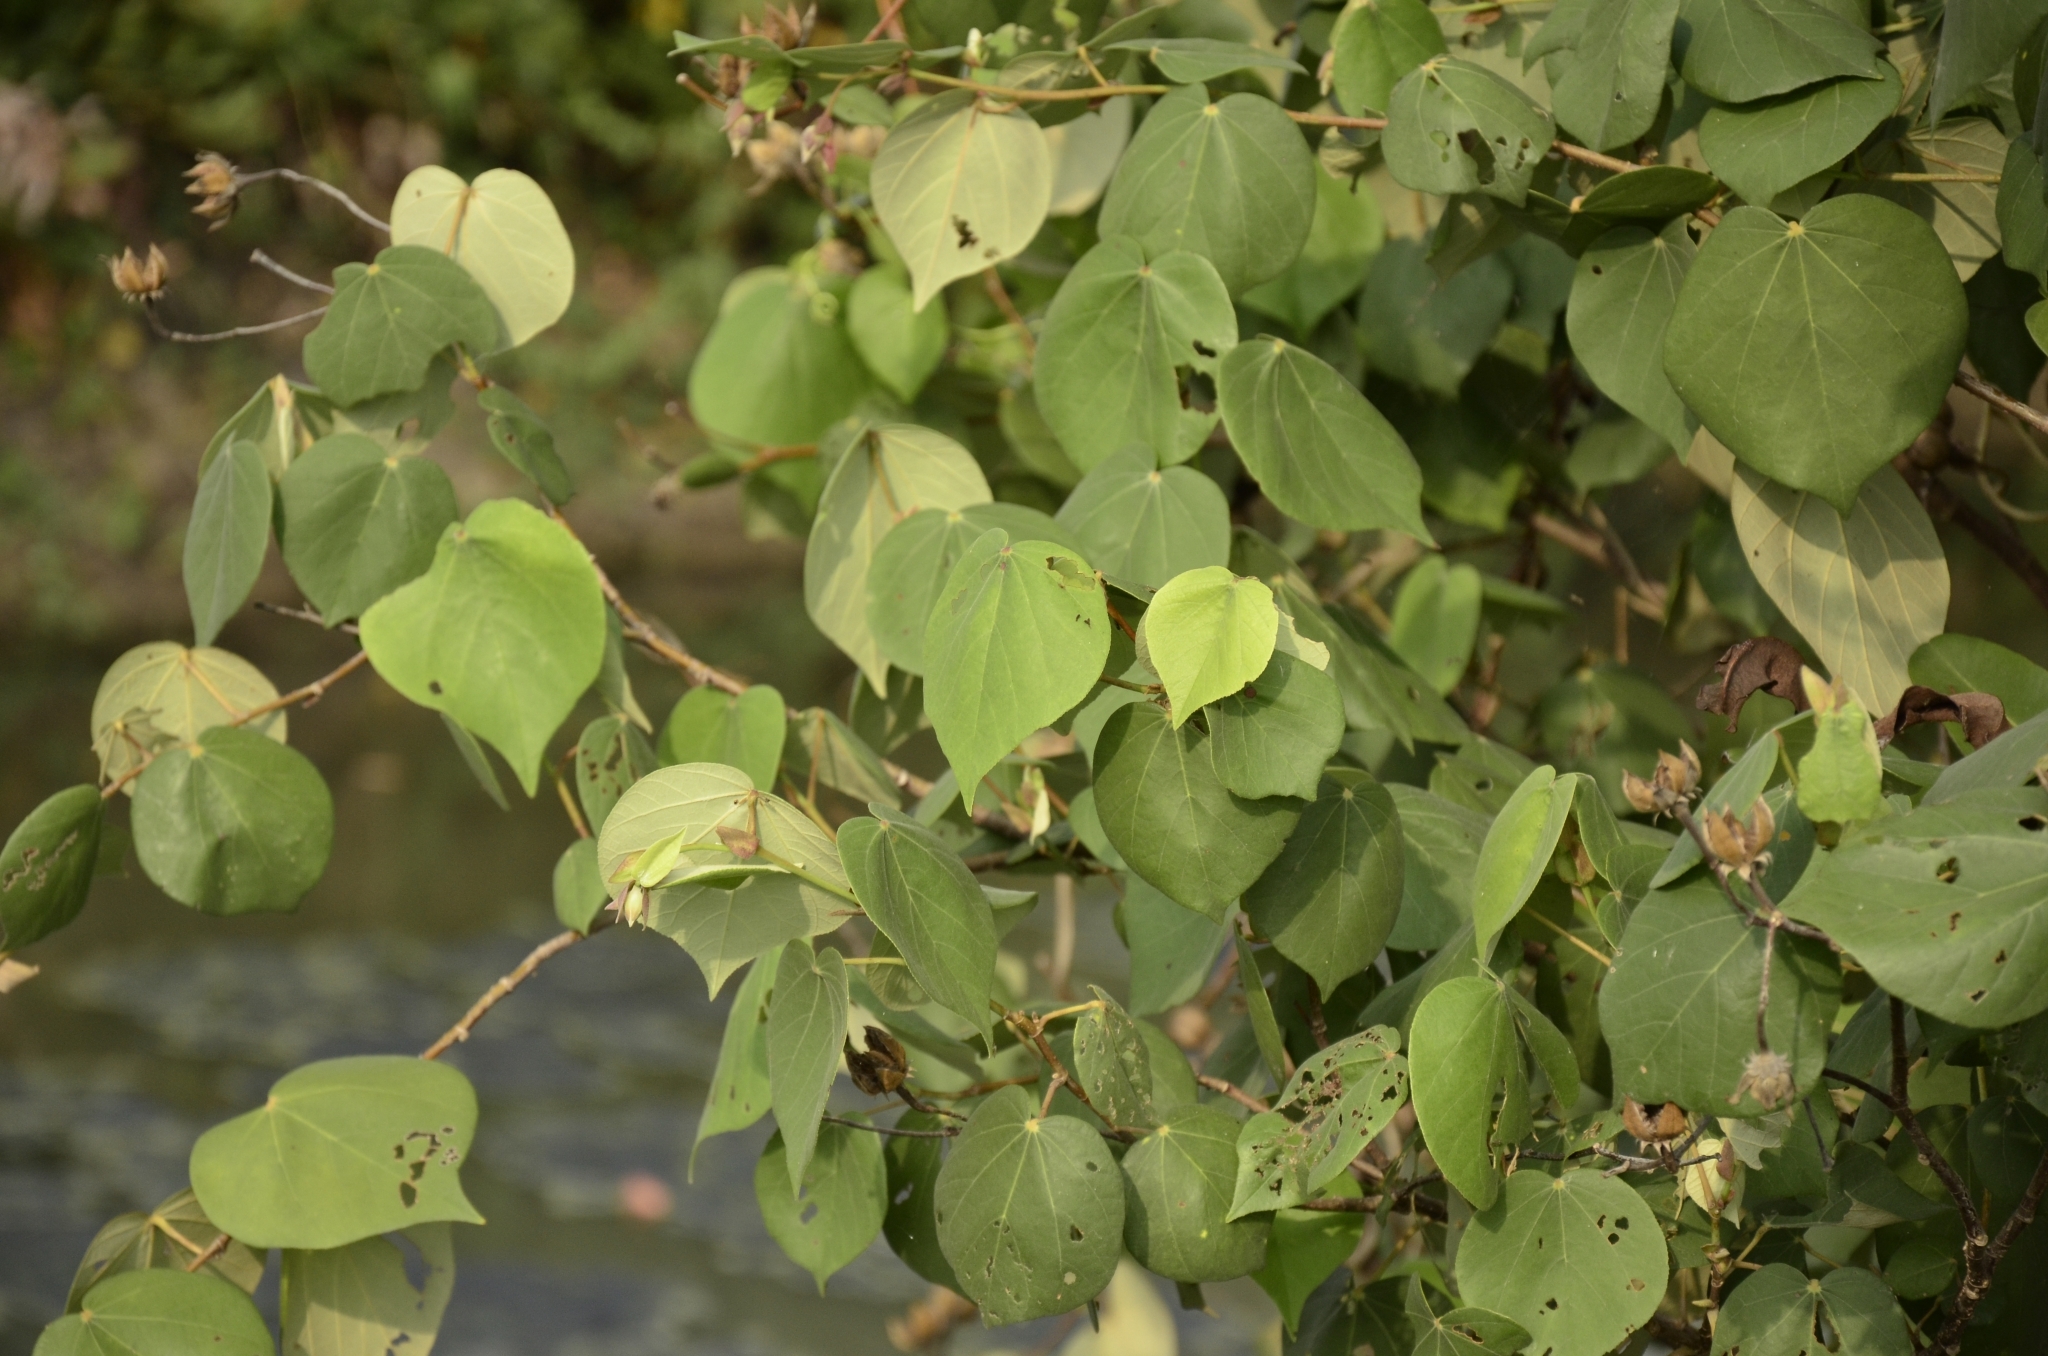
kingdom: Plantae
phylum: Tracheophyta
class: Magnoliopsida
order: Malvales
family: Malvaceae
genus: Talipariti
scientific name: Talipariti tiliaceum
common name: Sea hibiscus
